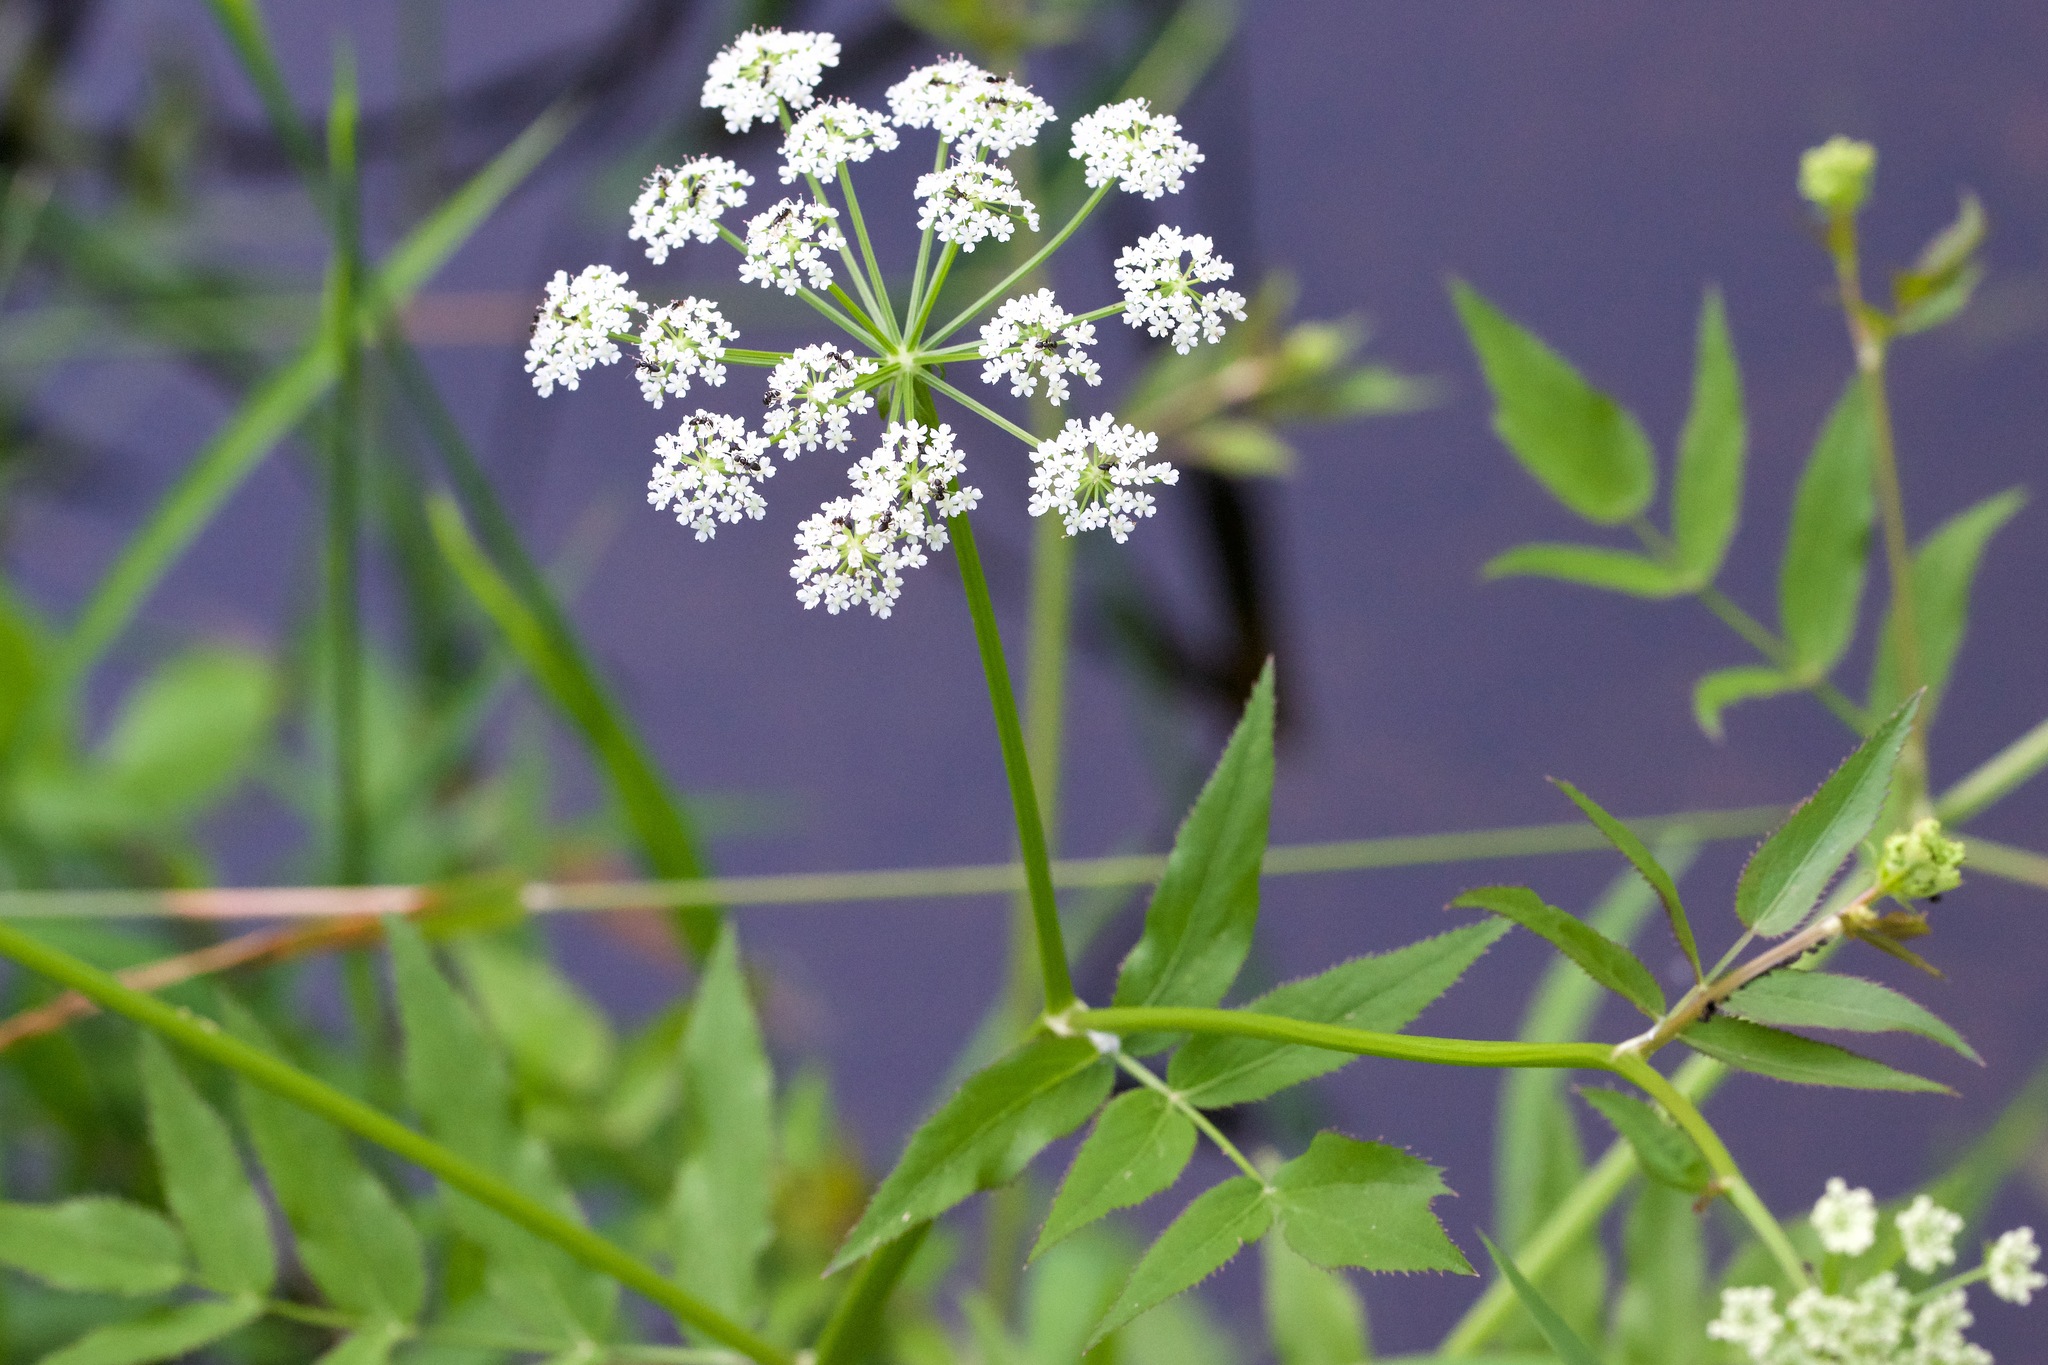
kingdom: Plantae
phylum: Tracheophyta
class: Magnoliopsida
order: Apiales
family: Apiaceae
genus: Sium
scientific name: Sium suave
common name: Hemlock water-parsnip
